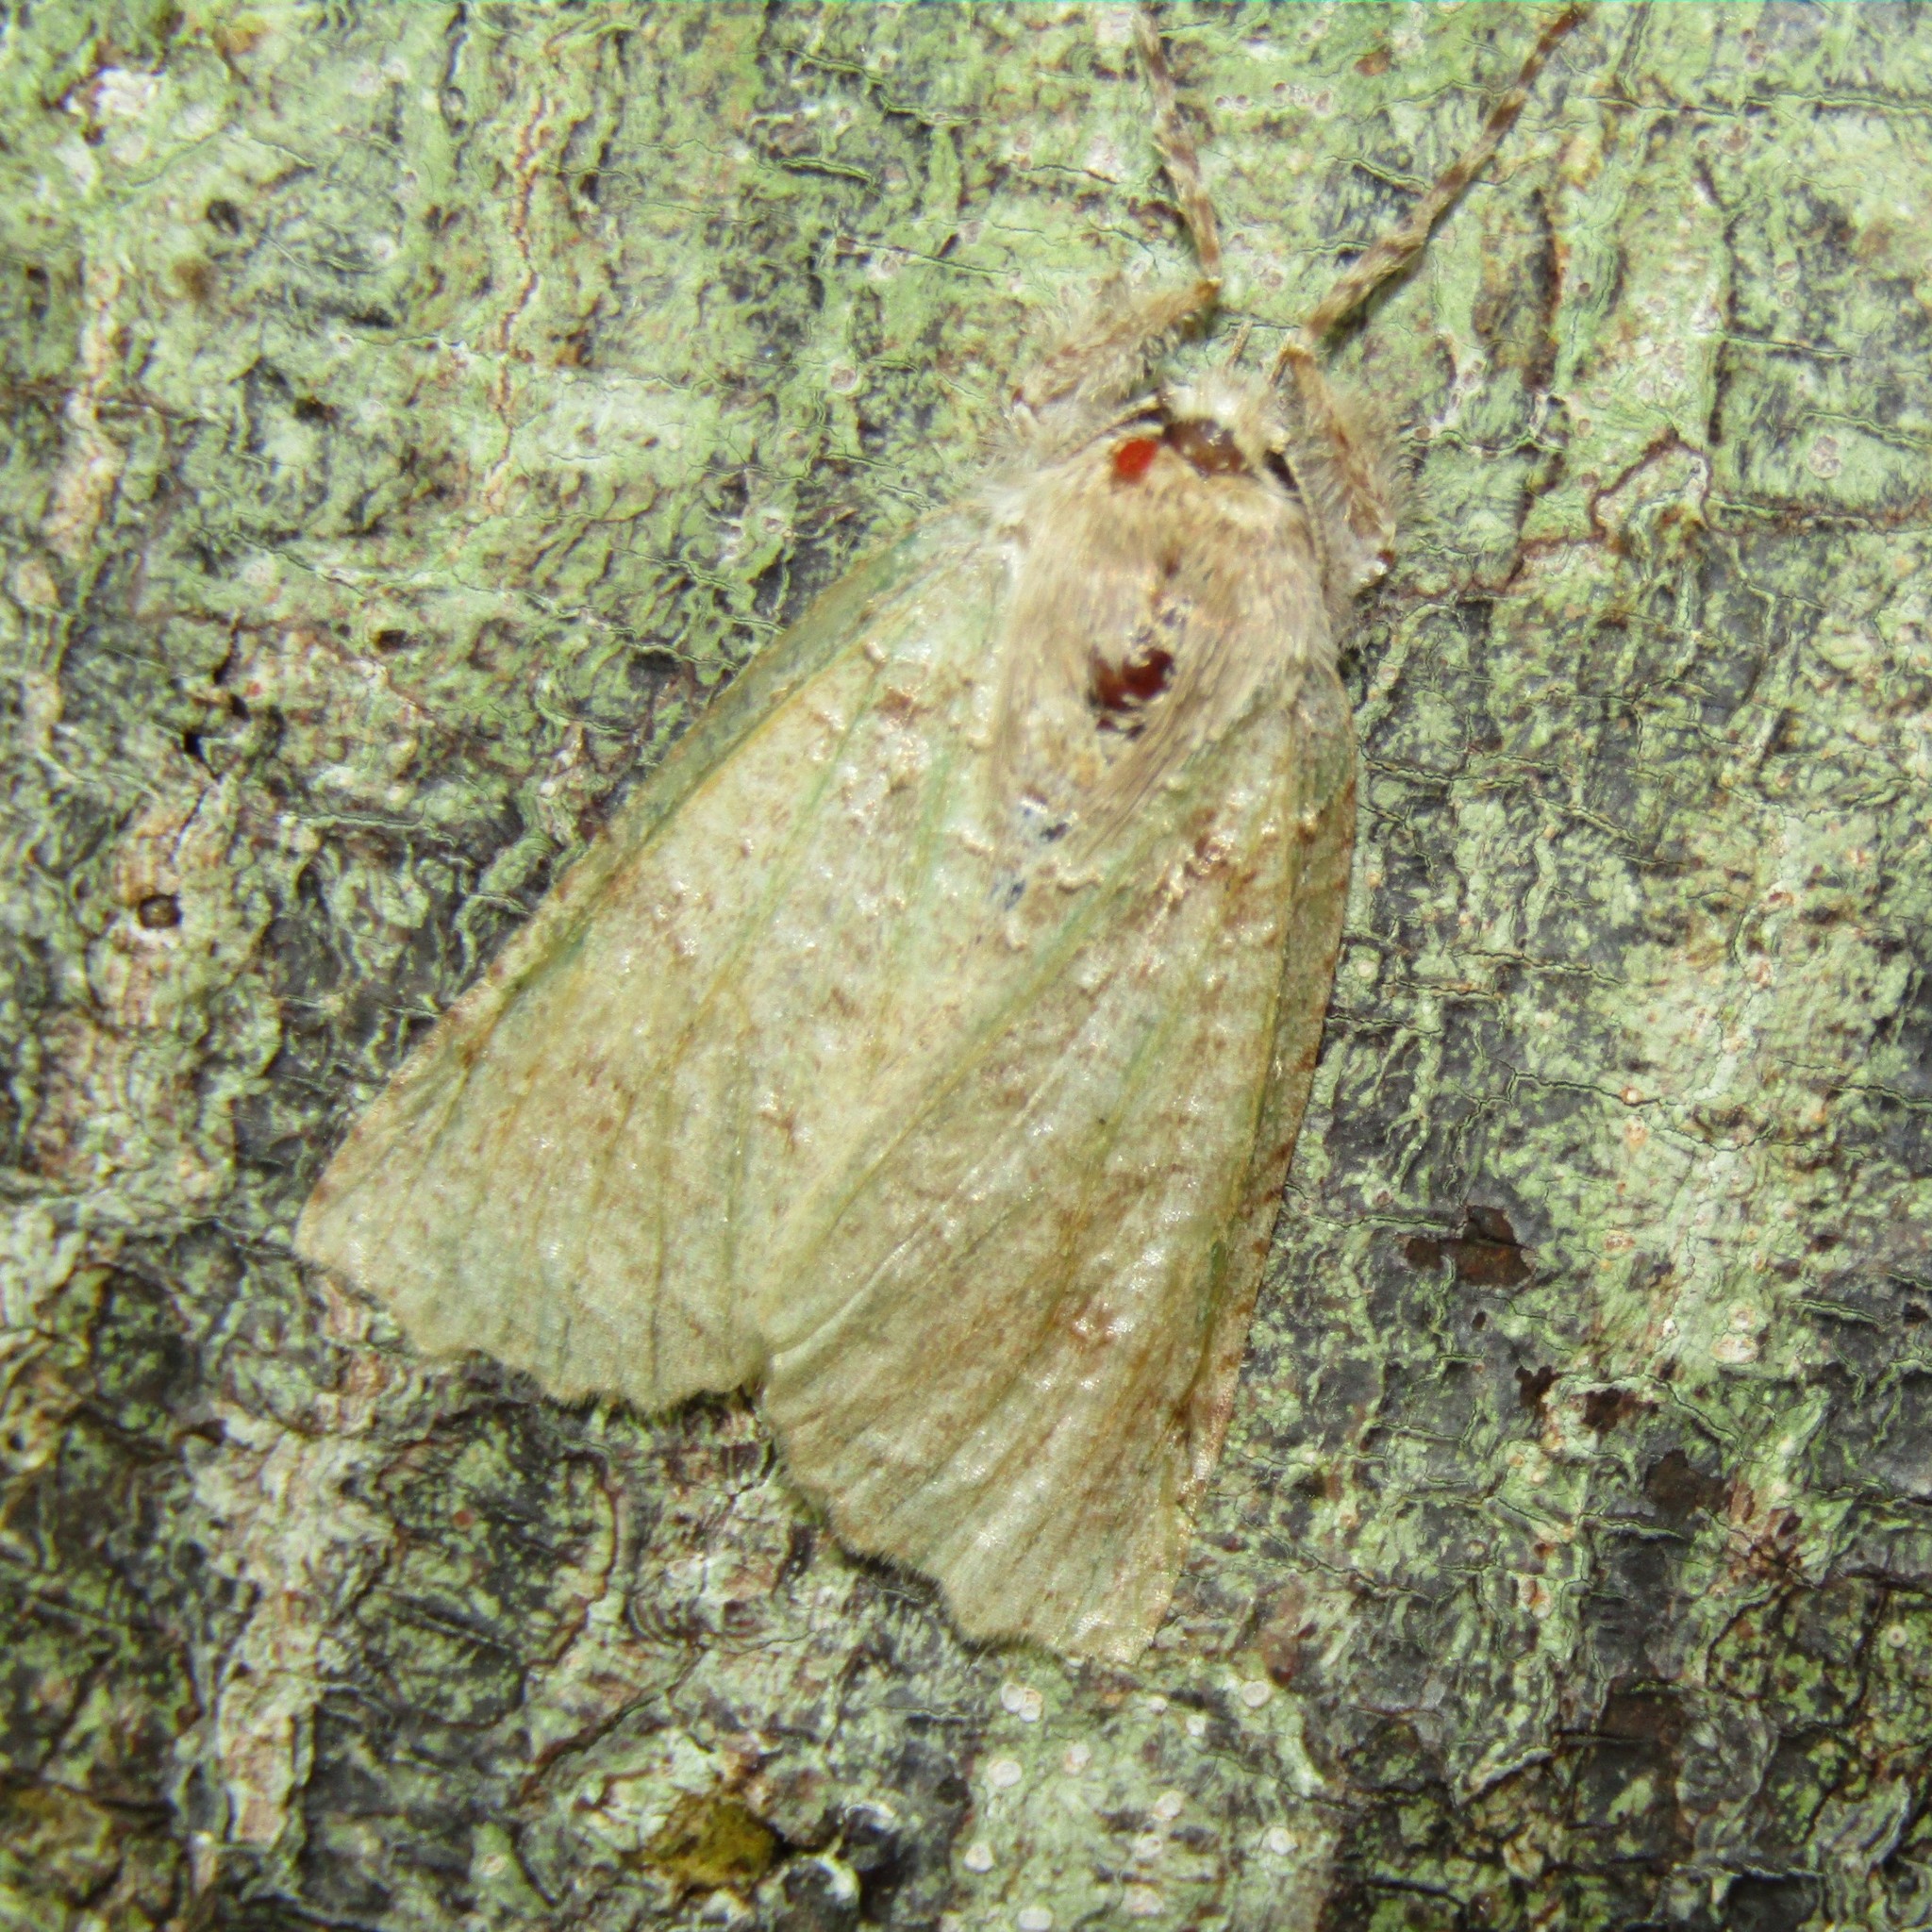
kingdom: Animalia
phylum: Arthropoda
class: Insecta
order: Lepidoptera
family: Geometridae
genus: Declana
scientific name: Declana floccosa
